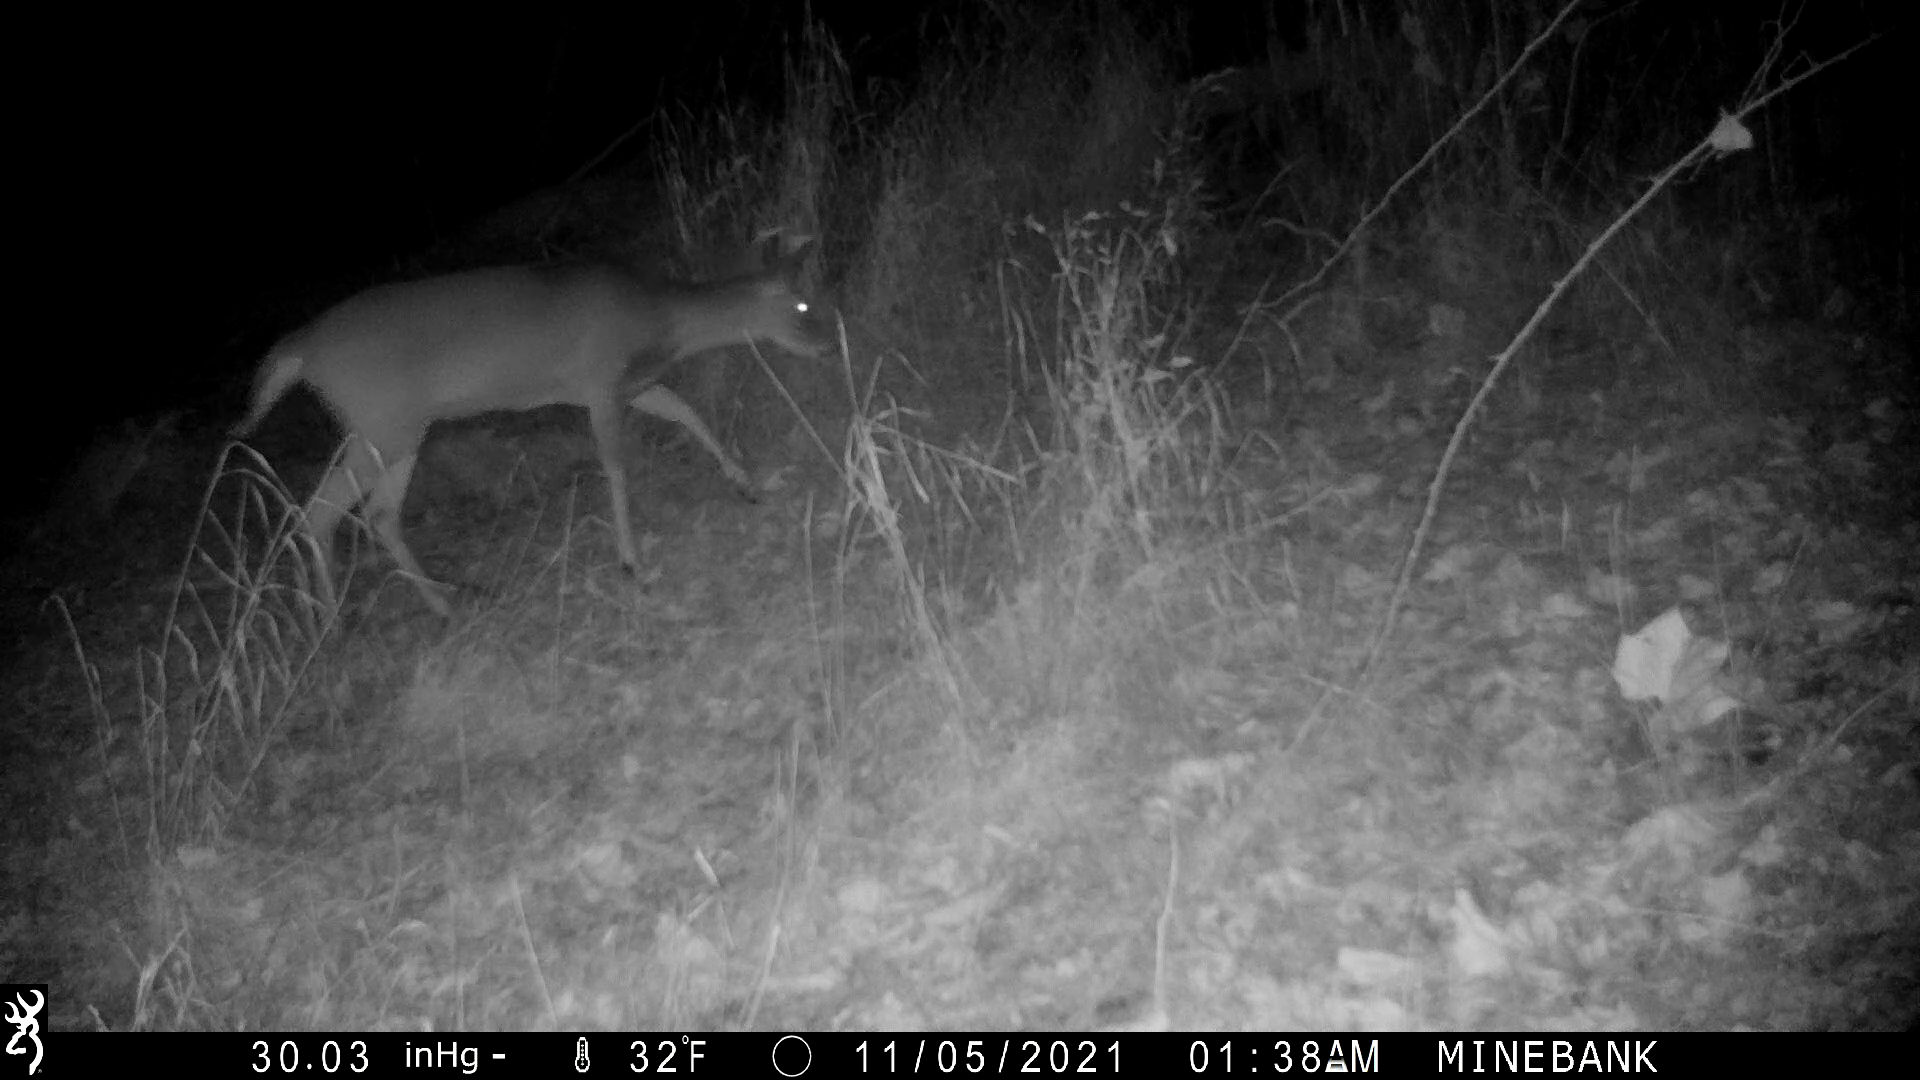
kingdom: Animalia
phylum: Chordata
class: Mammalia
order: Artiodactyla
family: Cervidae
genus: Odocoileus
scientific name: Odocoileus virginianus
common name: White-tailed deer
